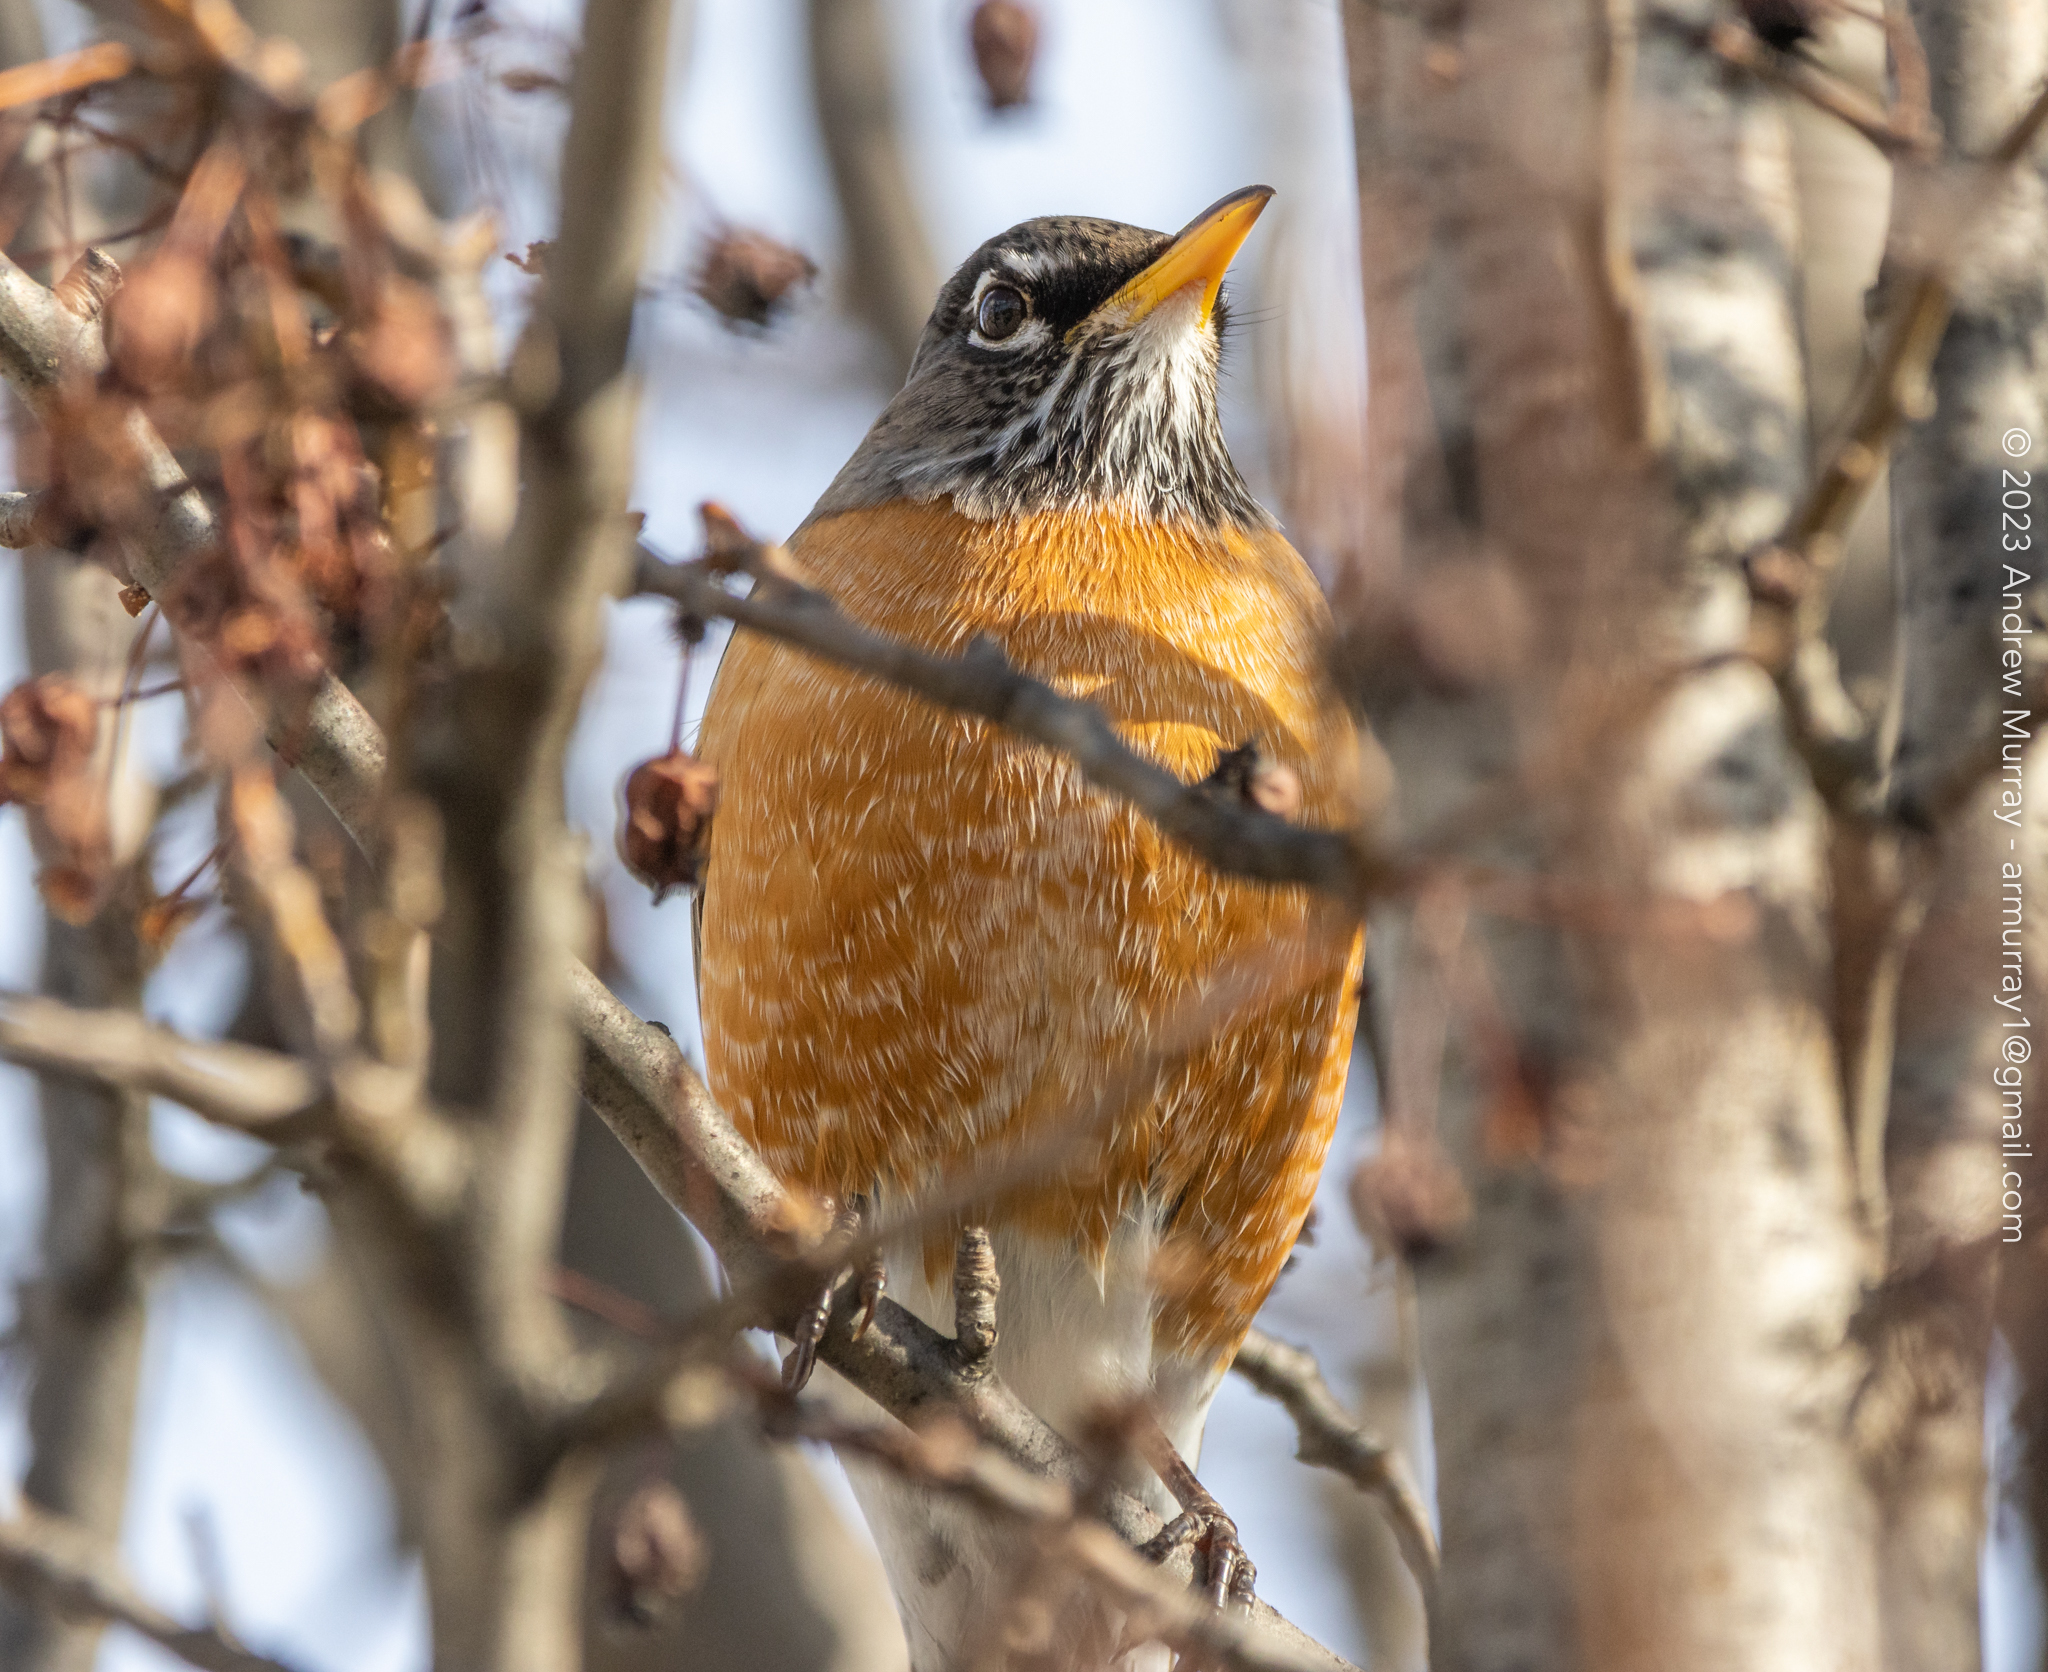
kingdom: Animalia
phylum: Chordata
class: Aves
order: Passeriformes
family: Turdidae
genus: Turdus
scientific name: Turdus migratorius
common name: American robin
